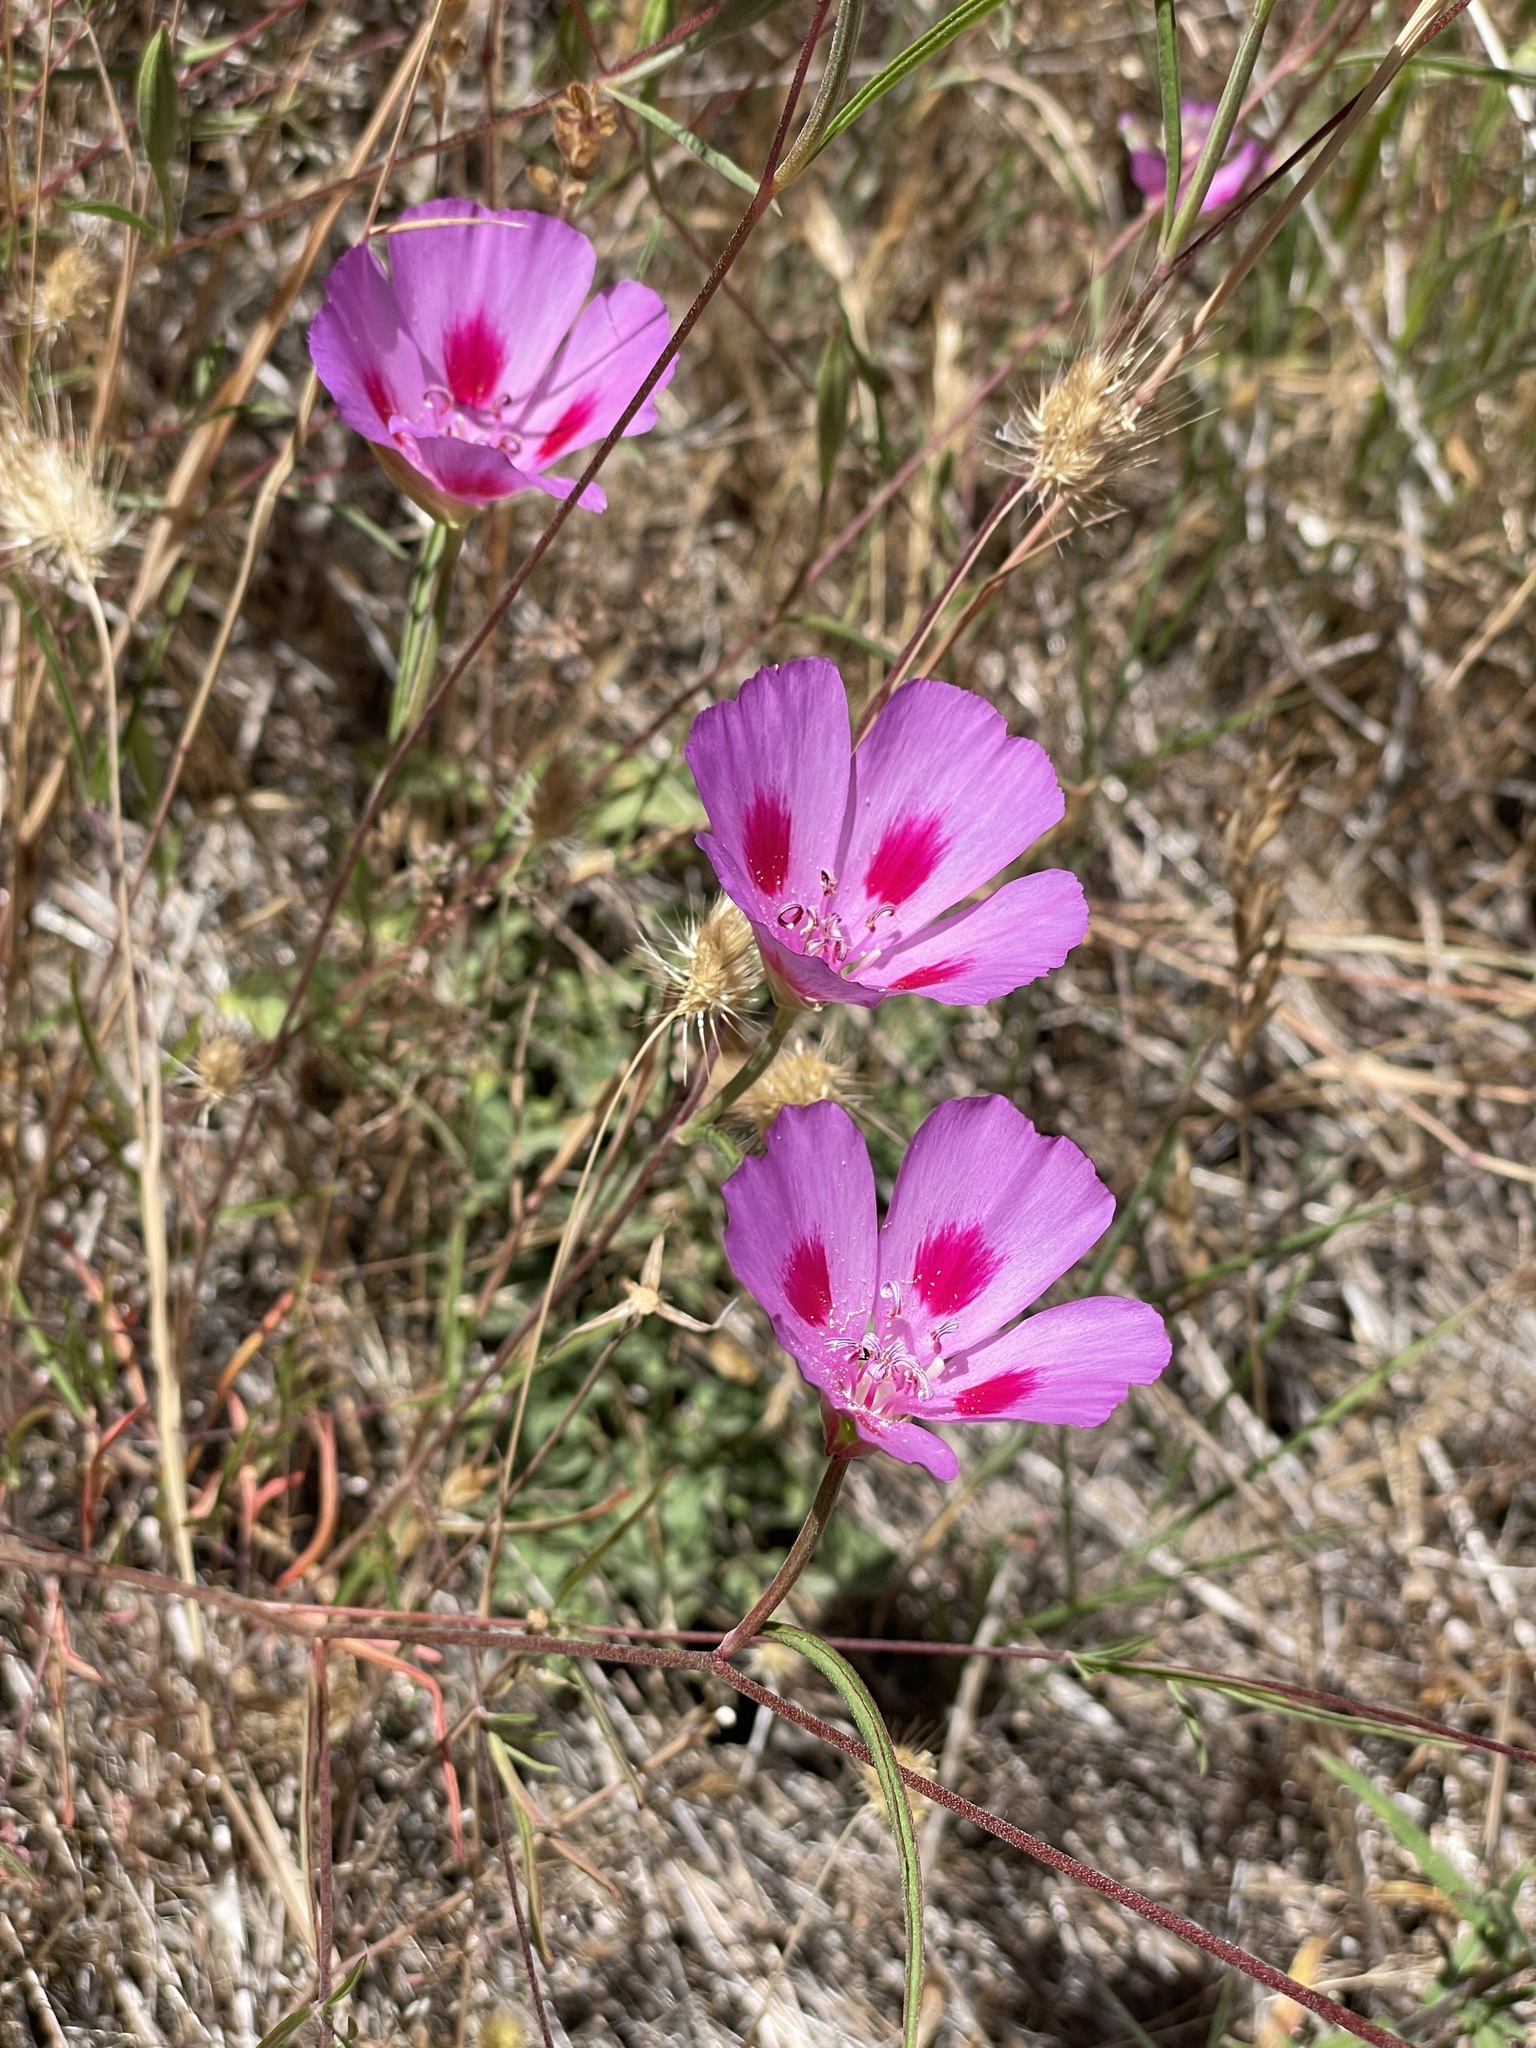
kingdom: Plantae
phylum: Tracheophyta
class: Magnoliopsida
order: Myrtales
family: Onagraceae
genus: Clarkia
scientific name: Clarkia amoena
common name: Godetia
